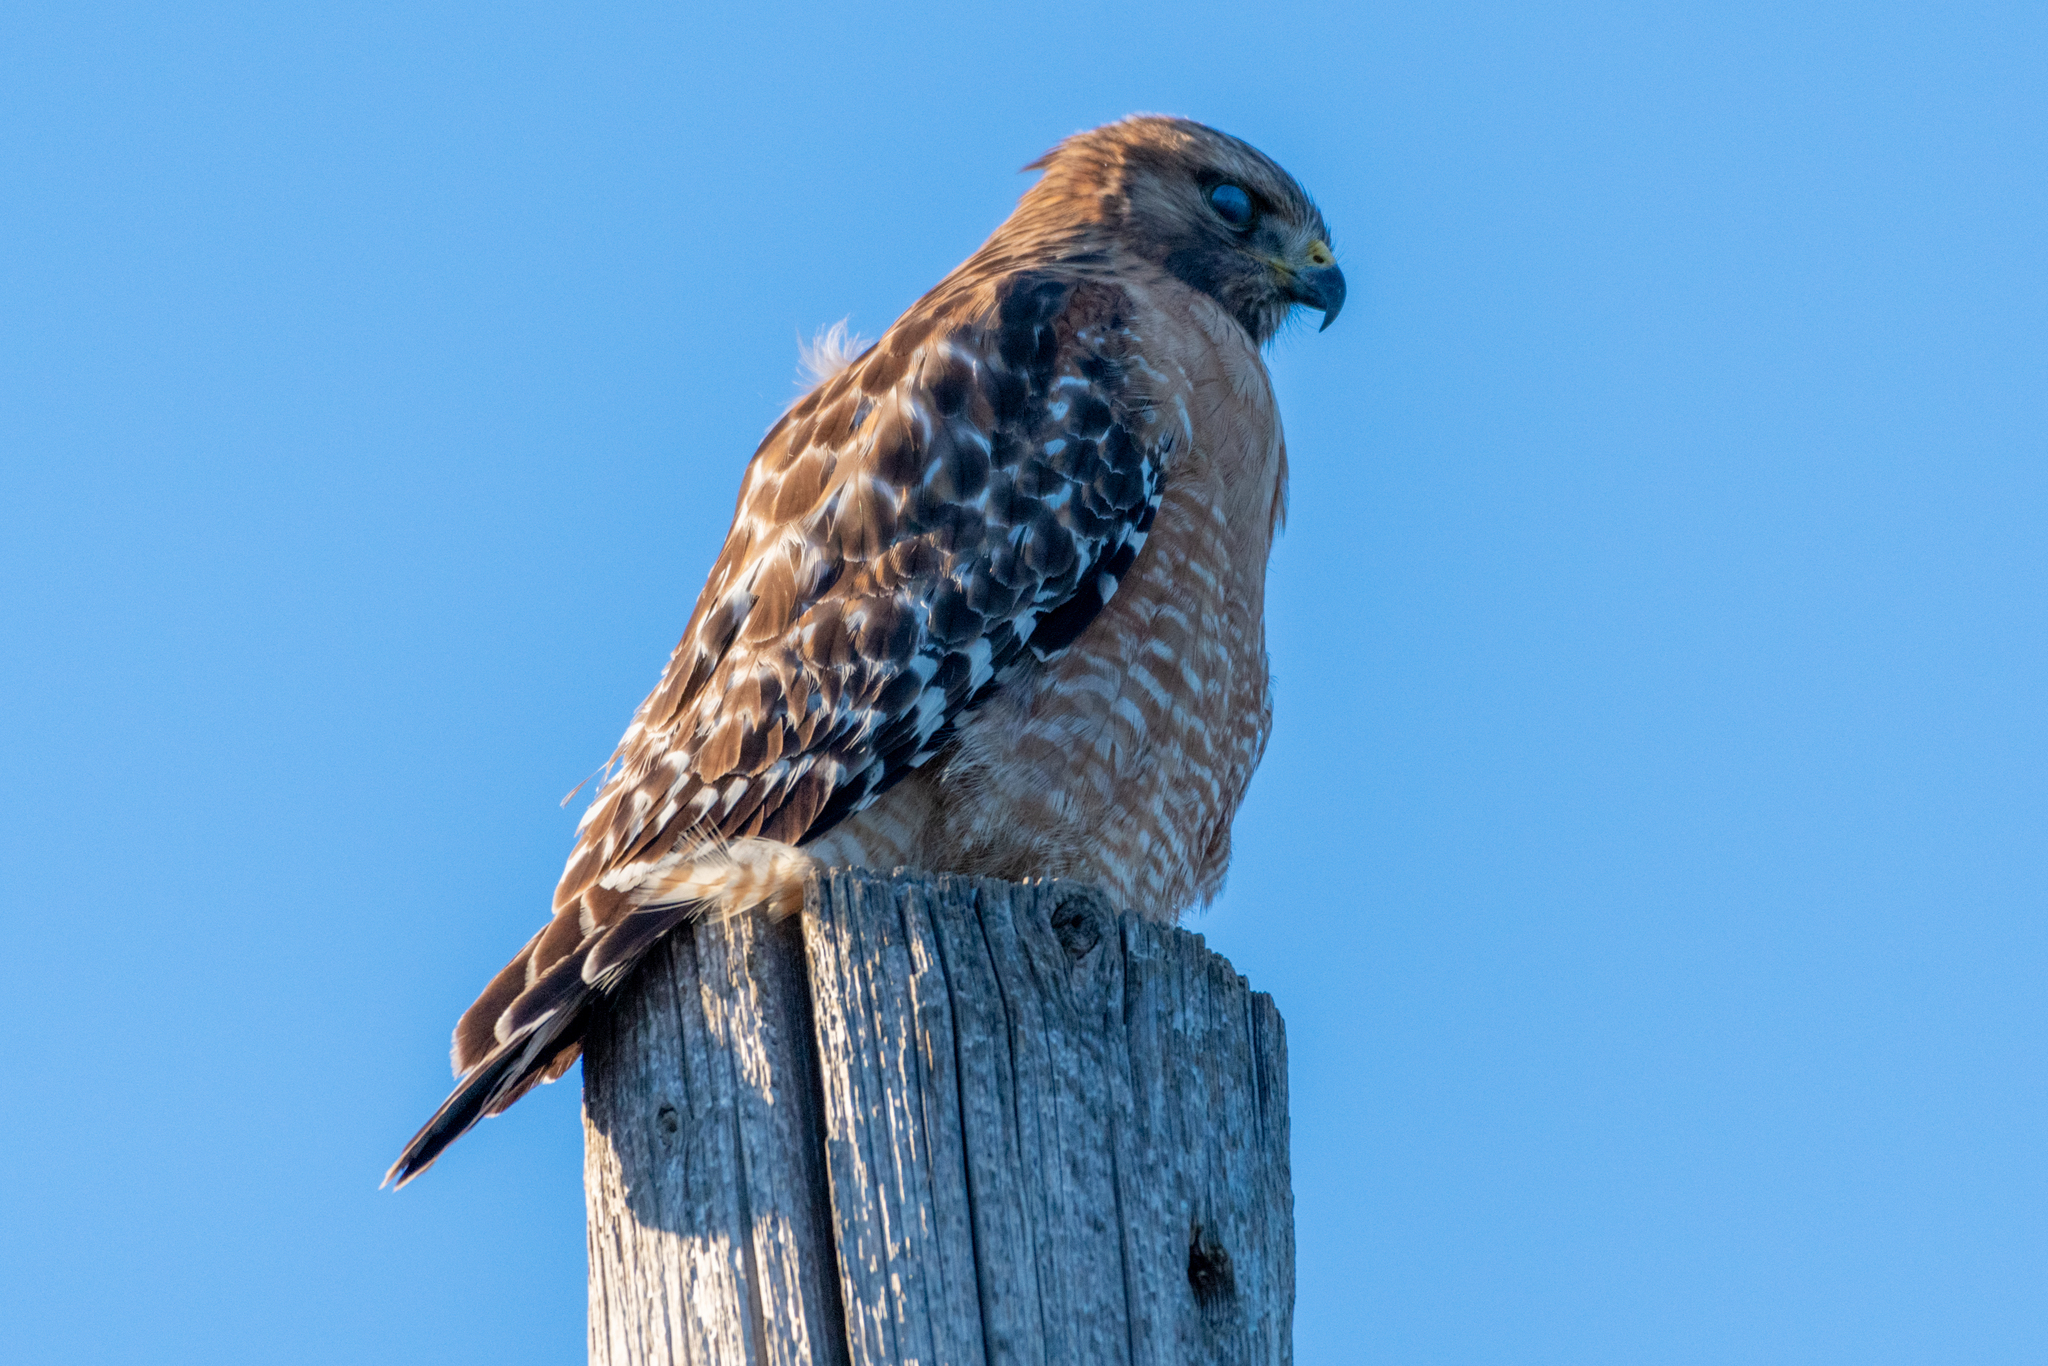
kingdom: Animalia
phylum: Chordata
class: Aves
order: Accipitriformes
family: Accipitridae
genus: Buteo
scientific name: Buteo lineatus
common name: Red-shouldered hawk
